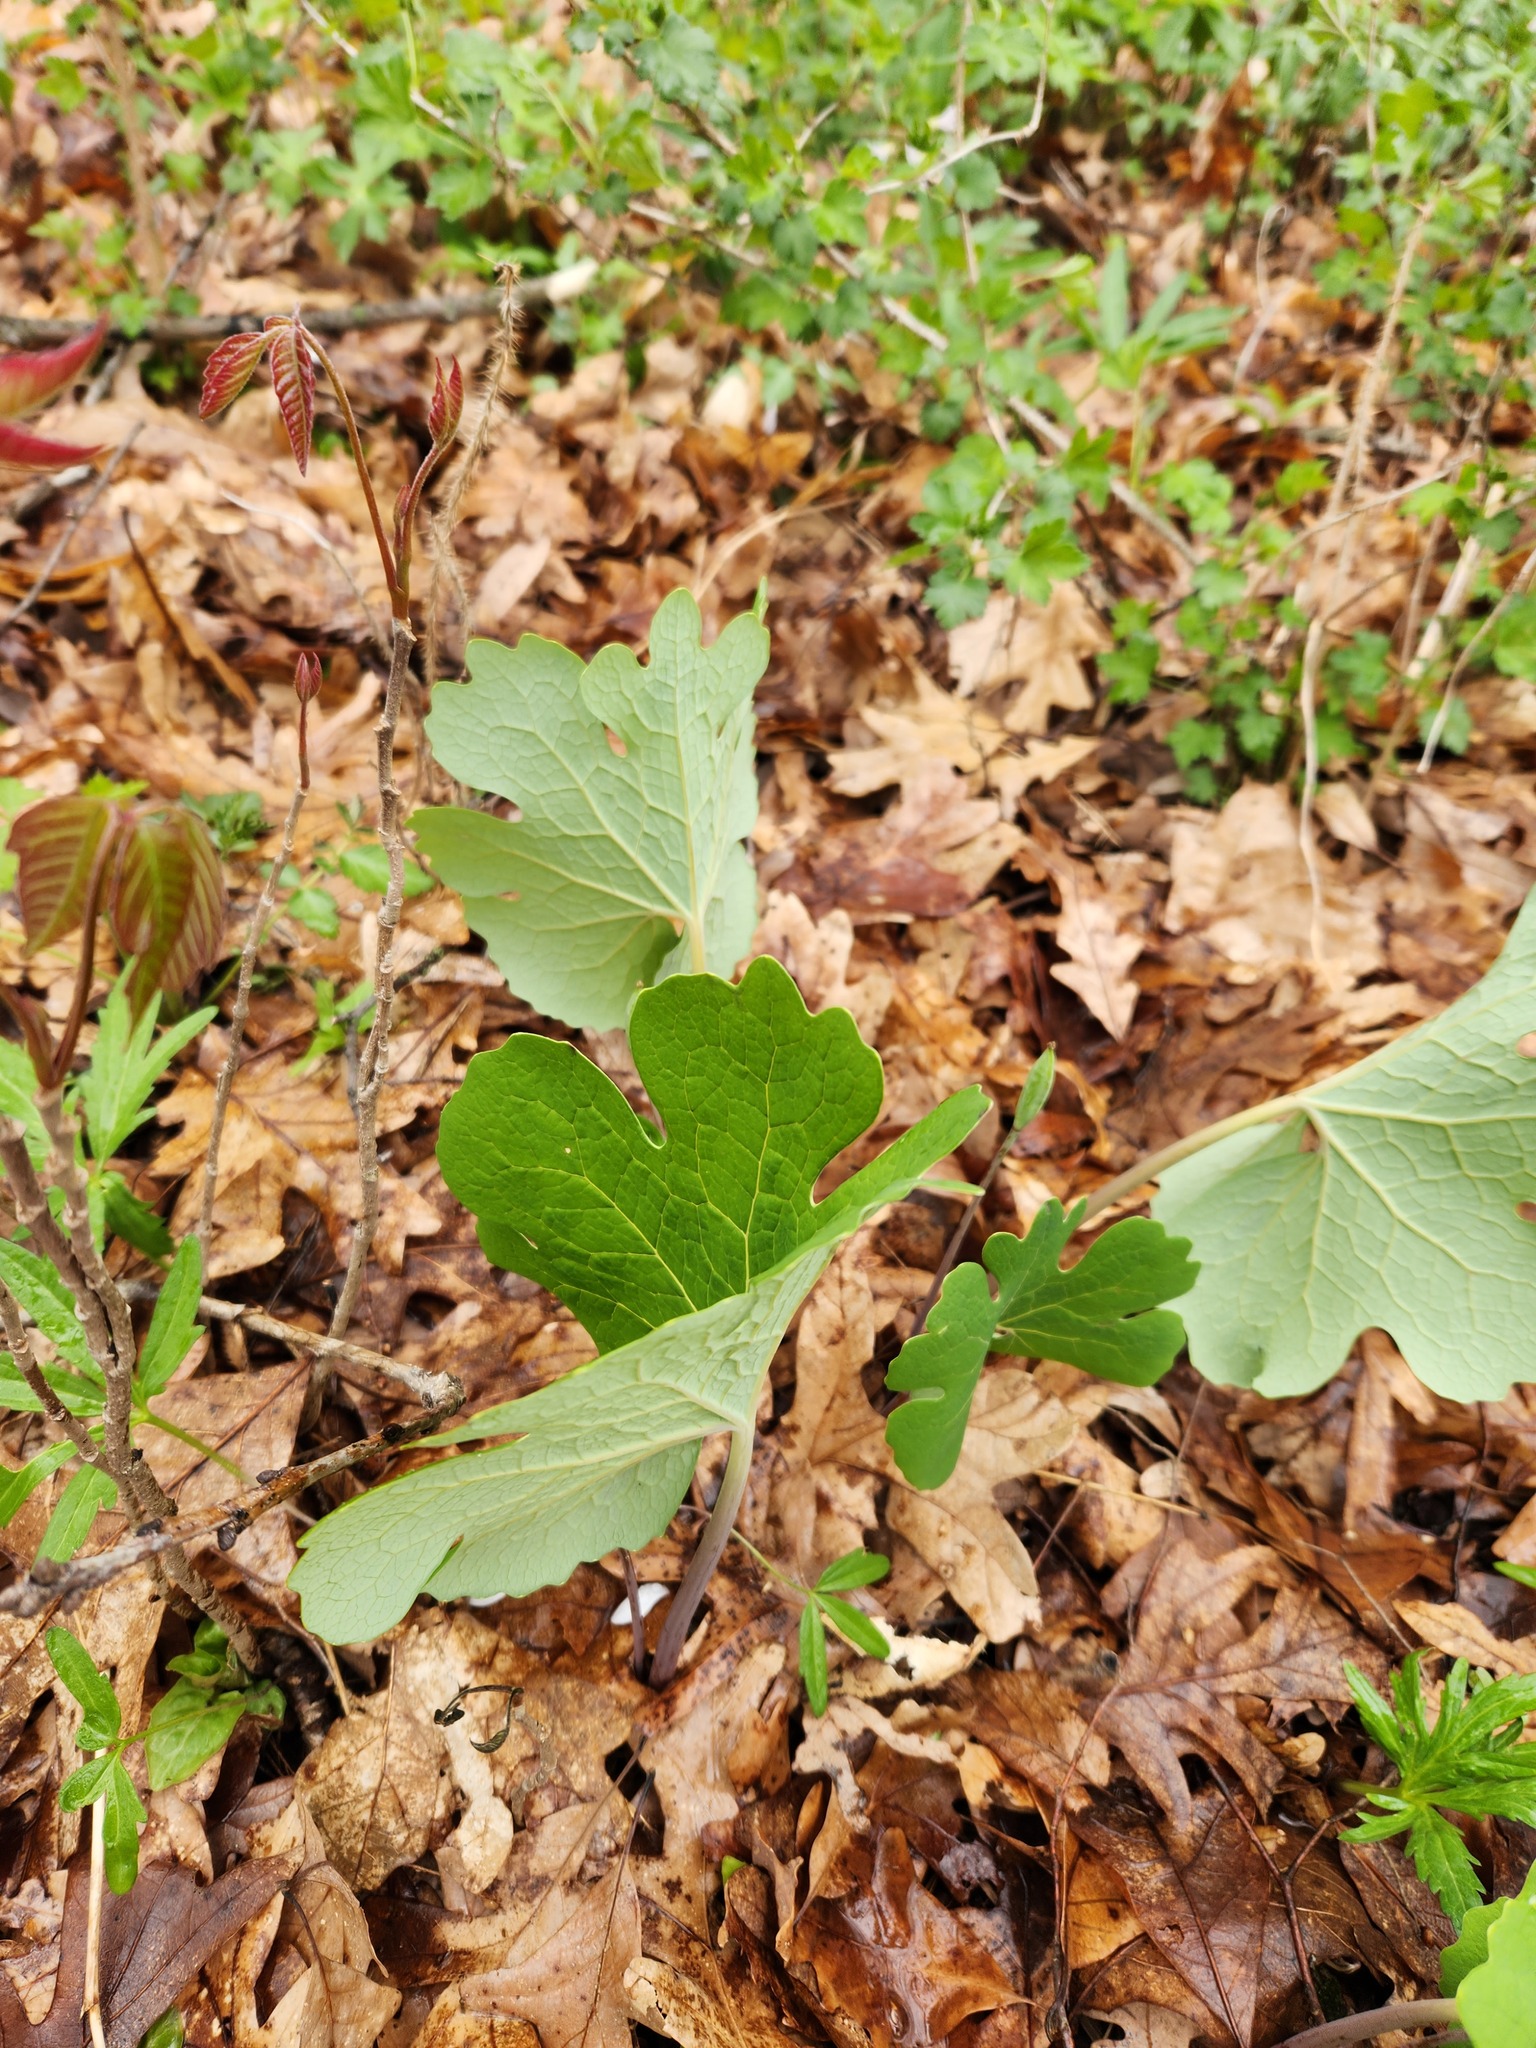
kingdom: Plantae
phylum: Tracheophyta
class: Magnoliopsida
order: Ranunculales
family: Papaveraceae
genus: Sanguinaria
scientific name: Sanguinaria canadensis
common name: Bloodroot
